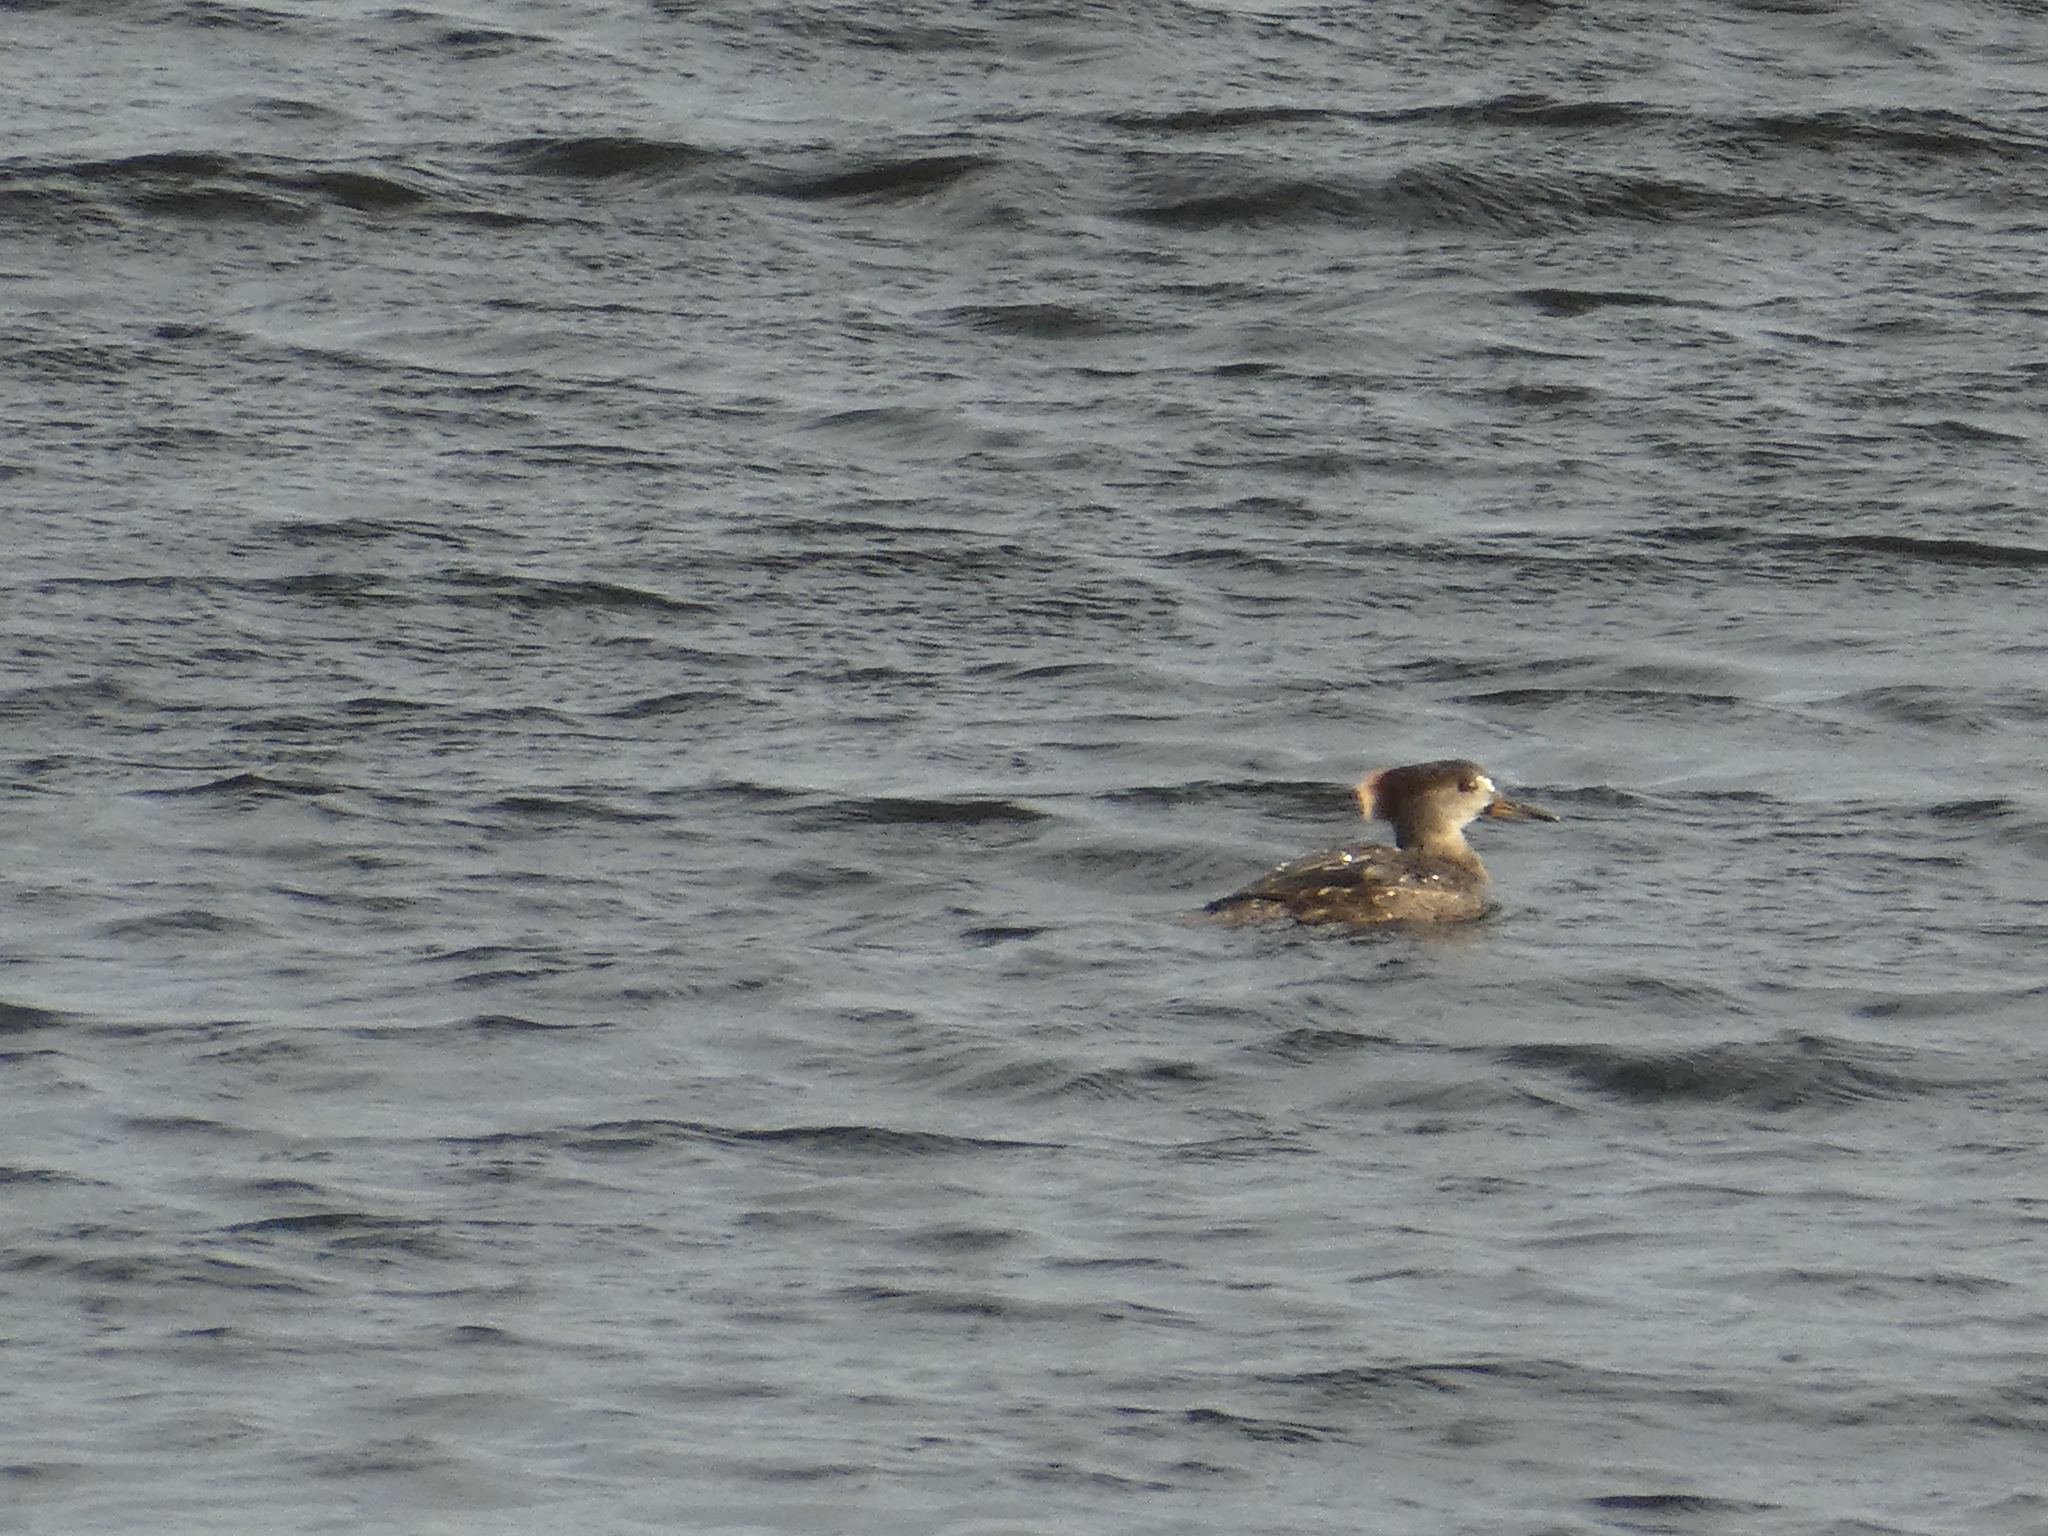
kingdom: Animalia
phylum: Chordata
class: Aves
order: Anseriformes
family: Anatidae
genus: Lophodytes
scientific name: Lophodytes cucullatus
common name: Hooded merganser
